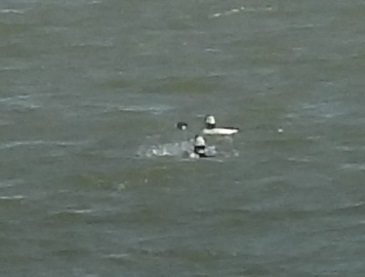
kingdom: Animalia
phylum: Chordata
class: Aves
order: Anseriformes
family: Anatidae
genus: Bucephala
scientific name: Bucephala albeola
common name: Bufflehead
